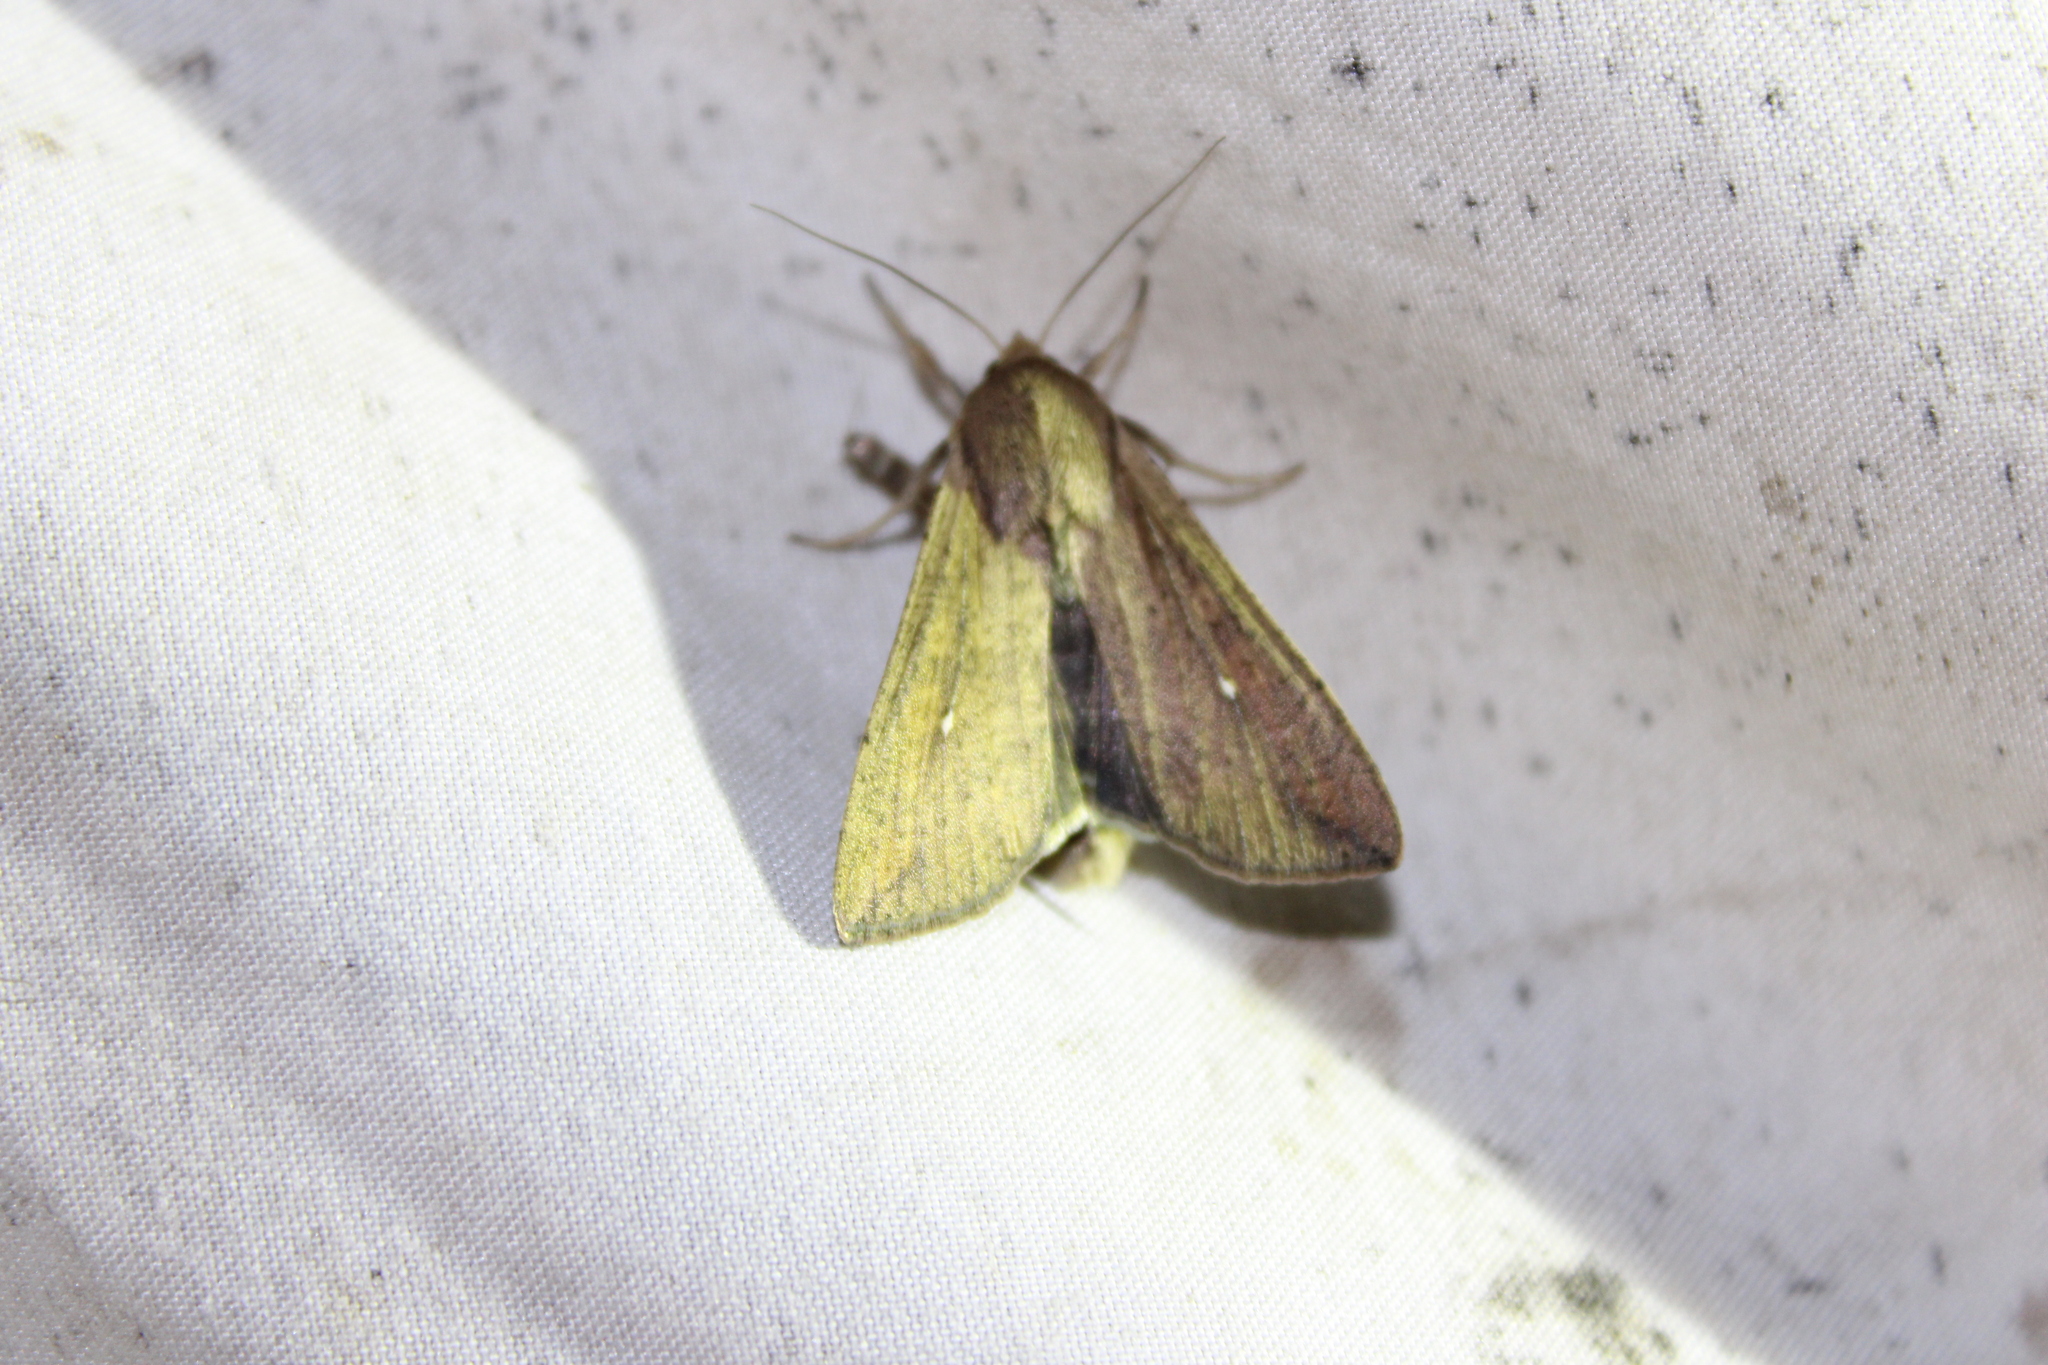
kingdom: Animalia
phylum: Arthropoda
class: Insecta
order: Lepidoptera
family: Noctuidae
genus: Mythimna
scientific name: Mythimna unipuncta
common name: White-speck
